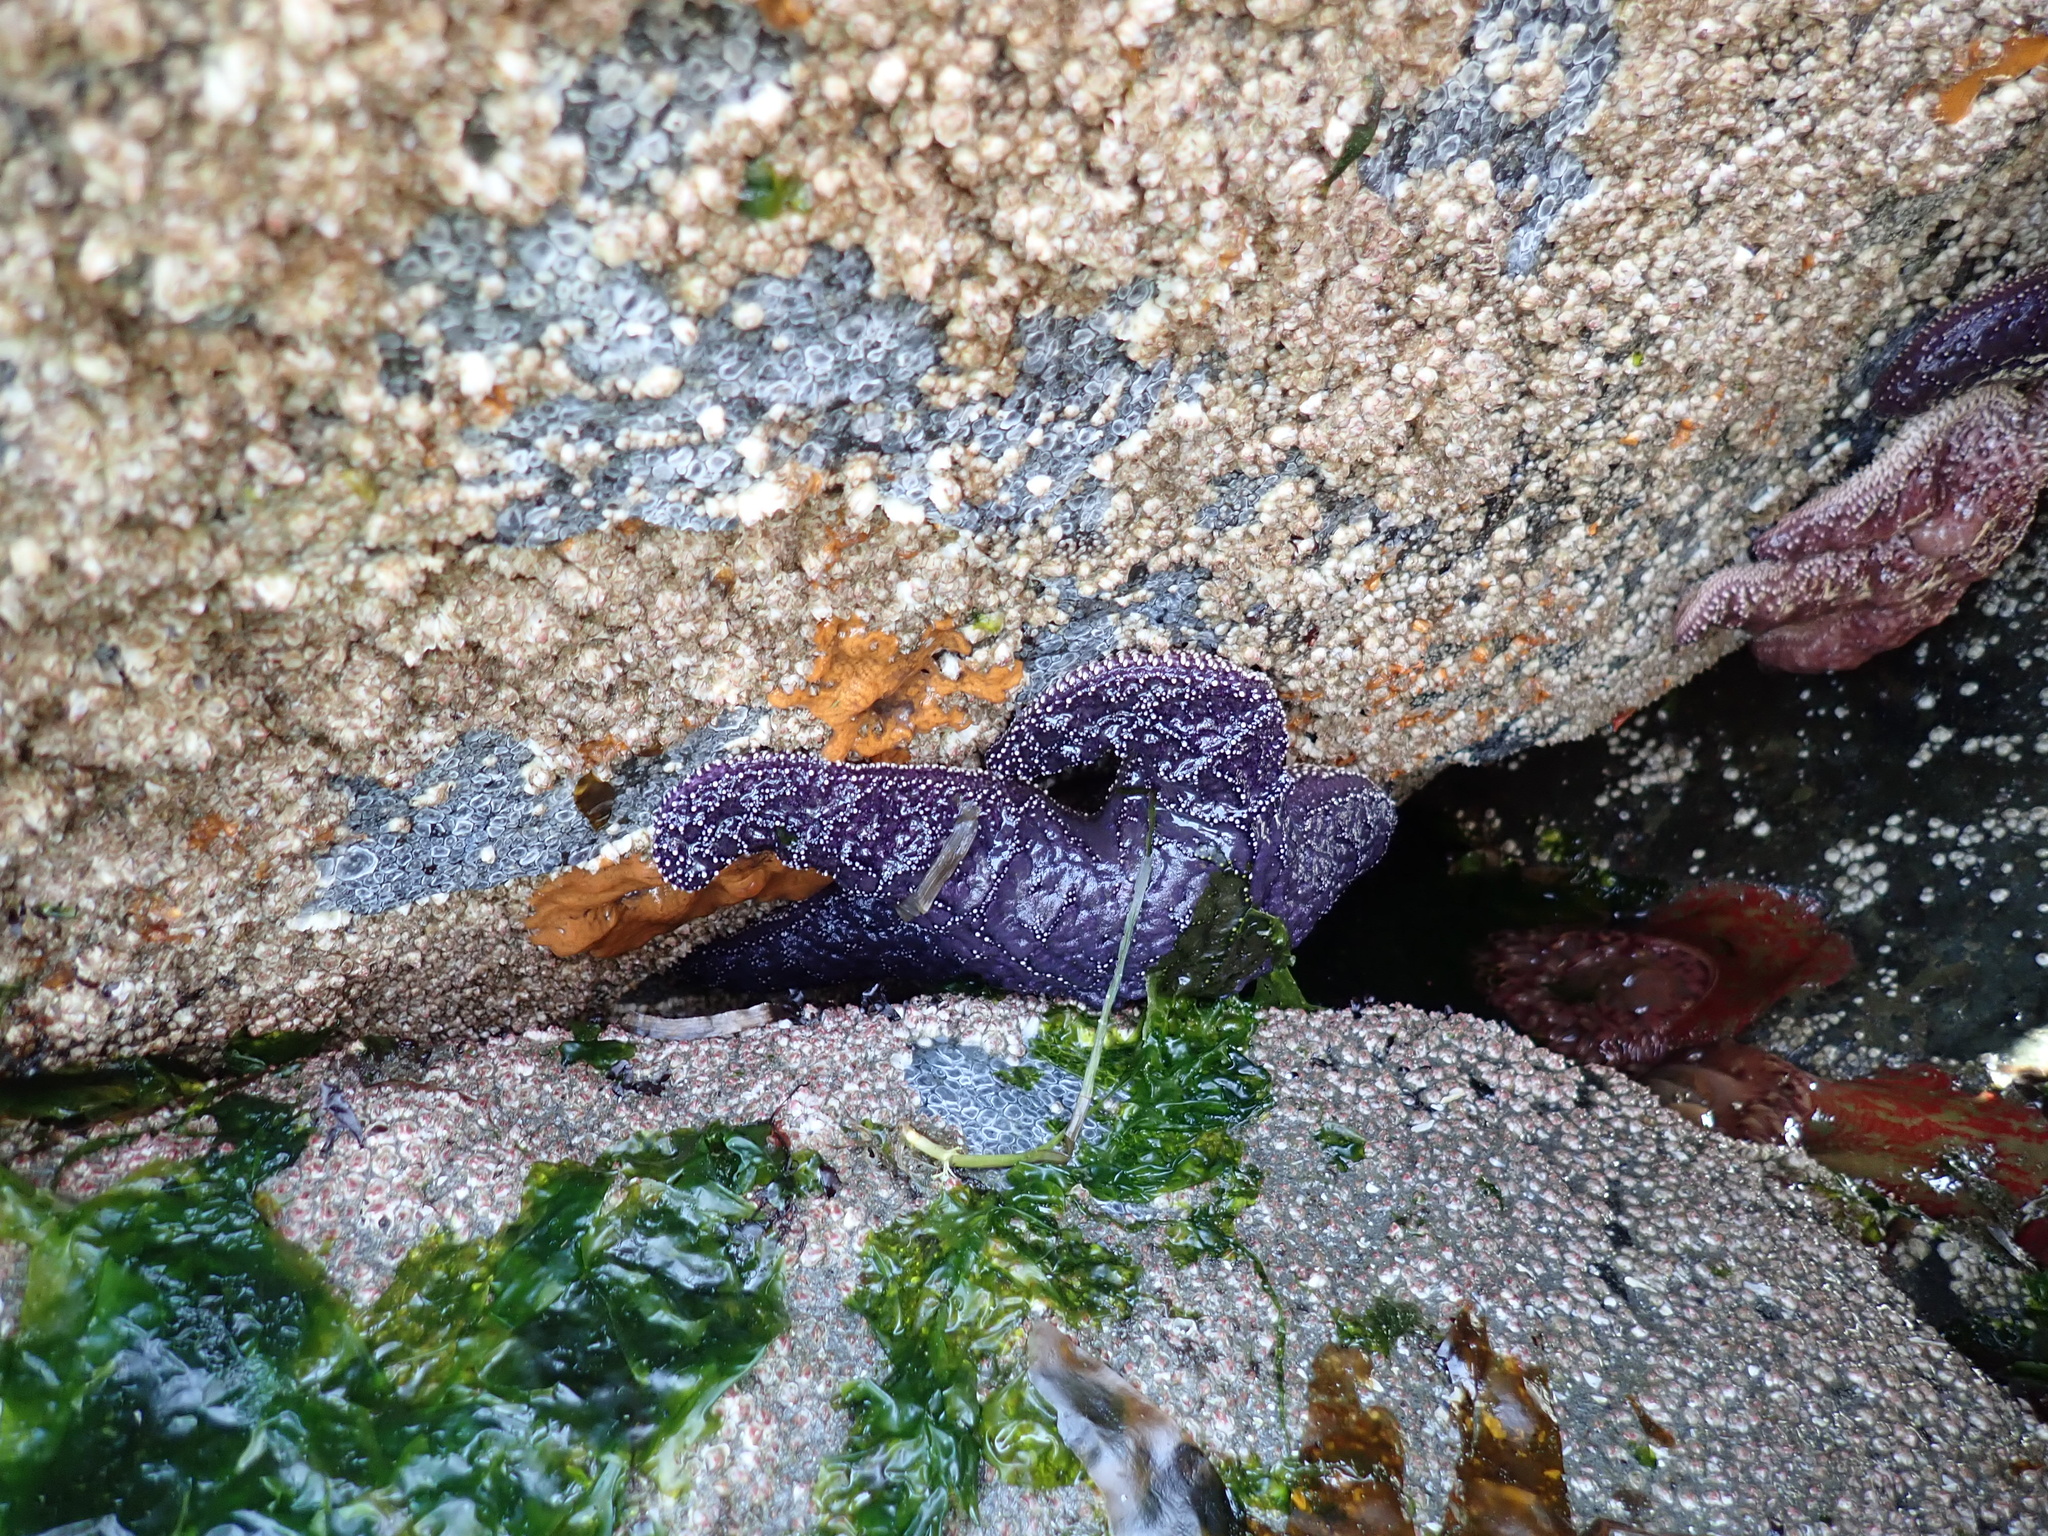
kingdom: Animalia
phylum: Echinodermata
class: Asteroidea
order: Forcipulatida
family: Asteriidae
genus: Pisaster
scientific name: Pisaster ochraceus
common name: Ochre stars
